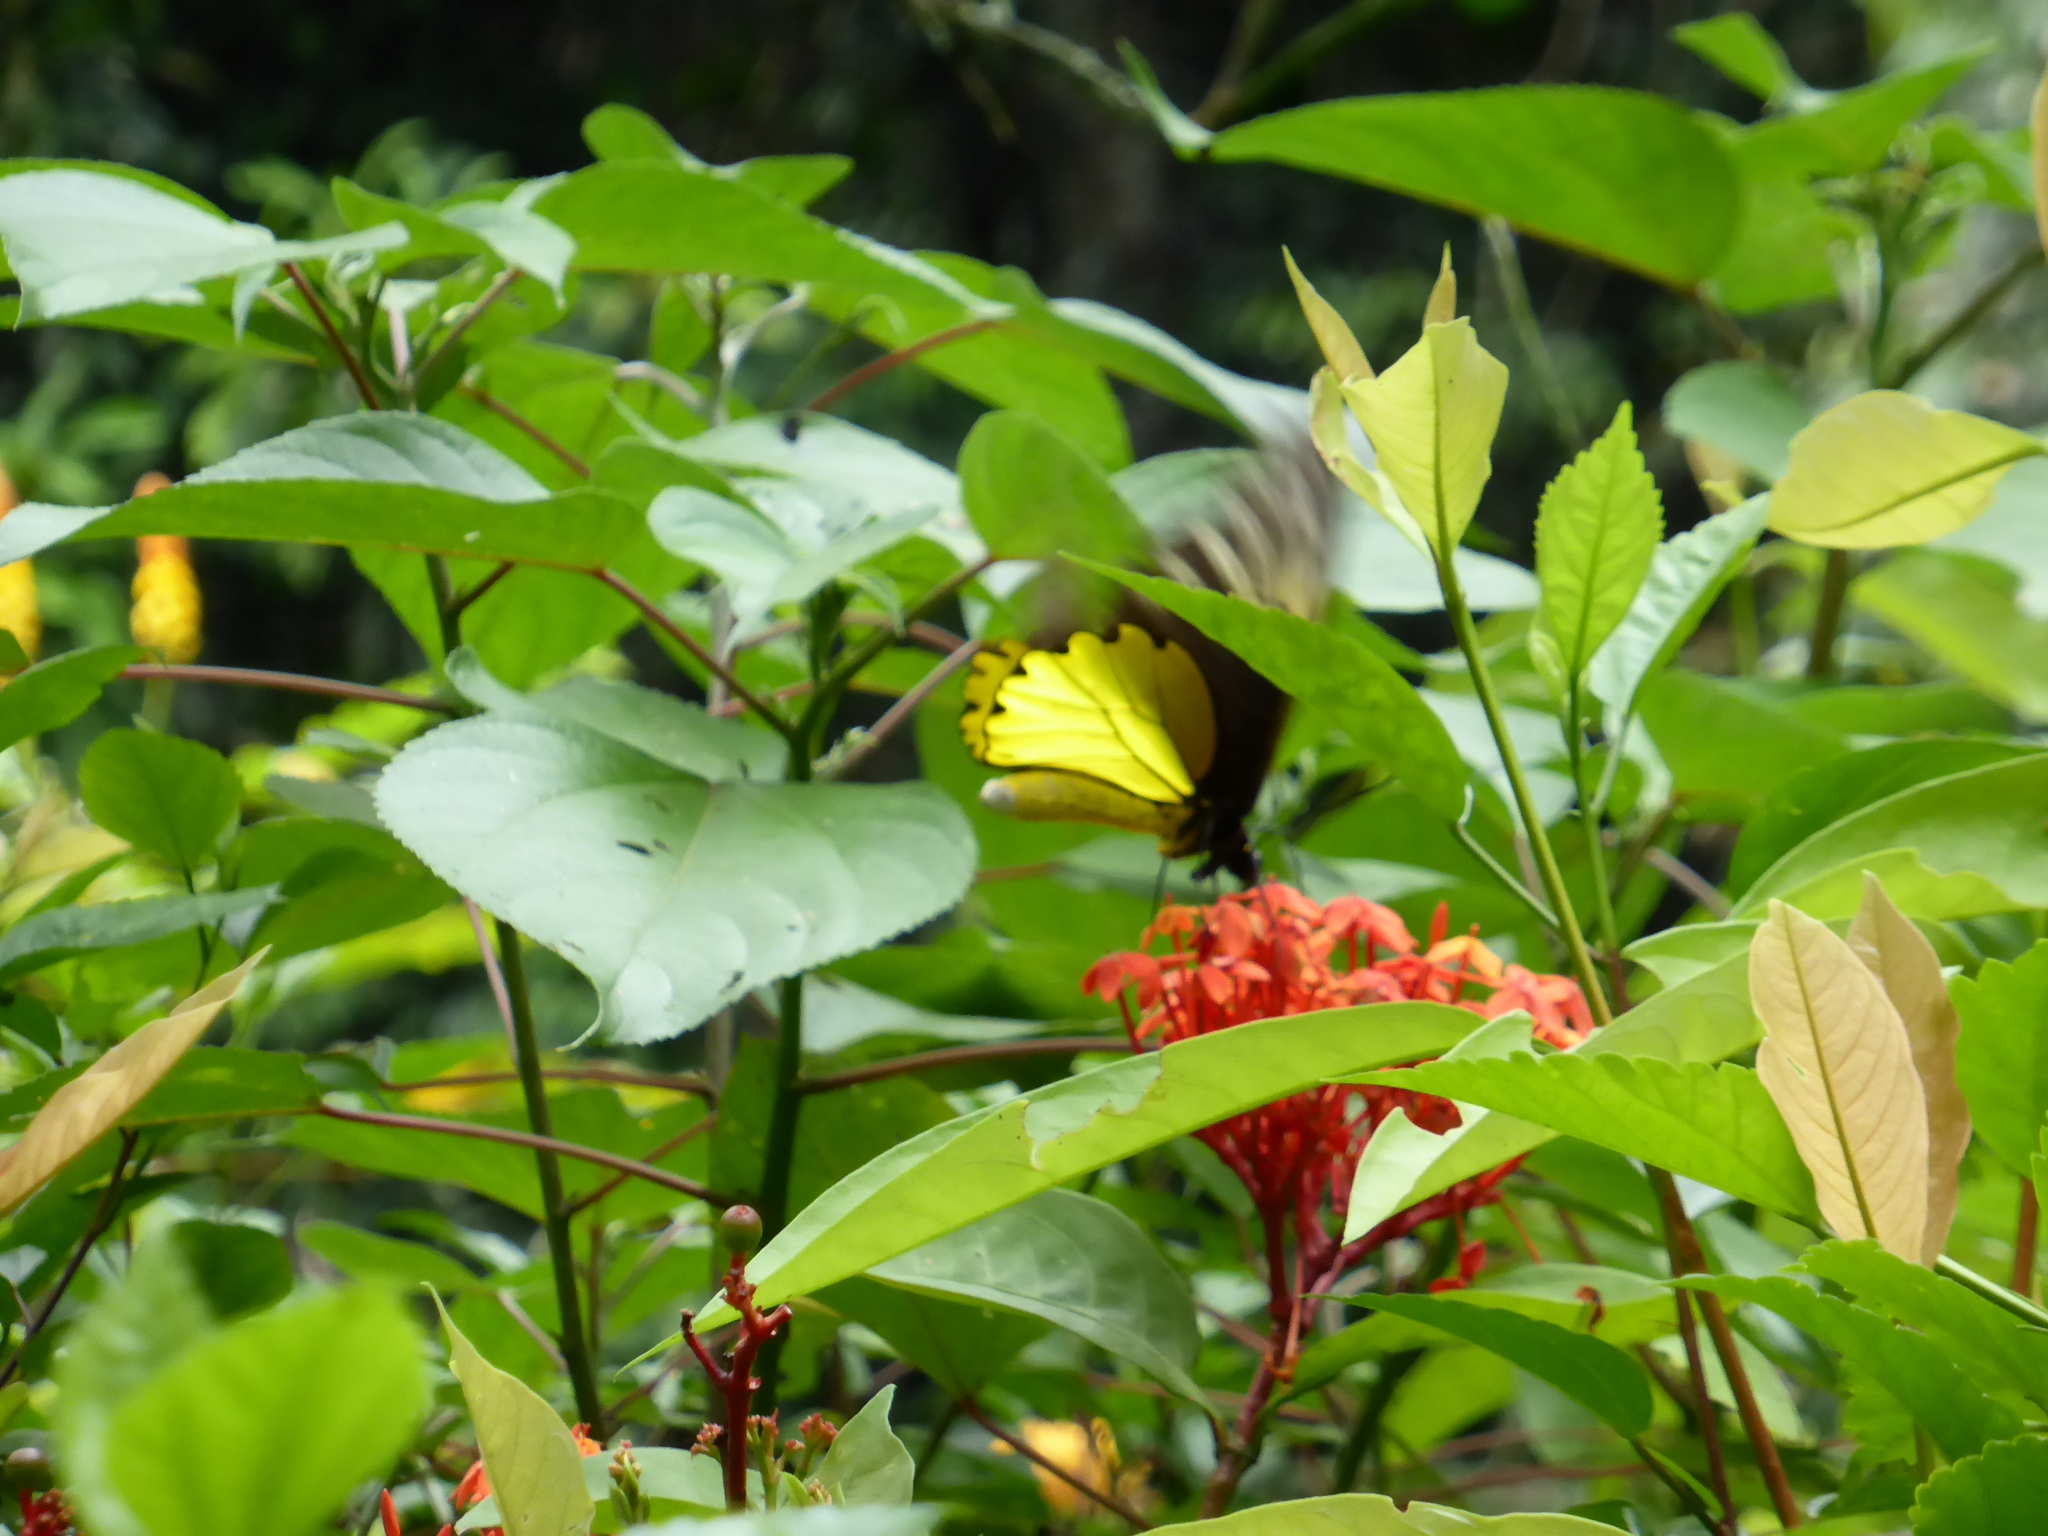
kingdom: Animalia
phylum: Arthropoda
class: Insecta
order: Lepidoptera
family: Papilionidae
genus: Troides
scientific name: Troides amphrysus
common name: Malay birdwing
